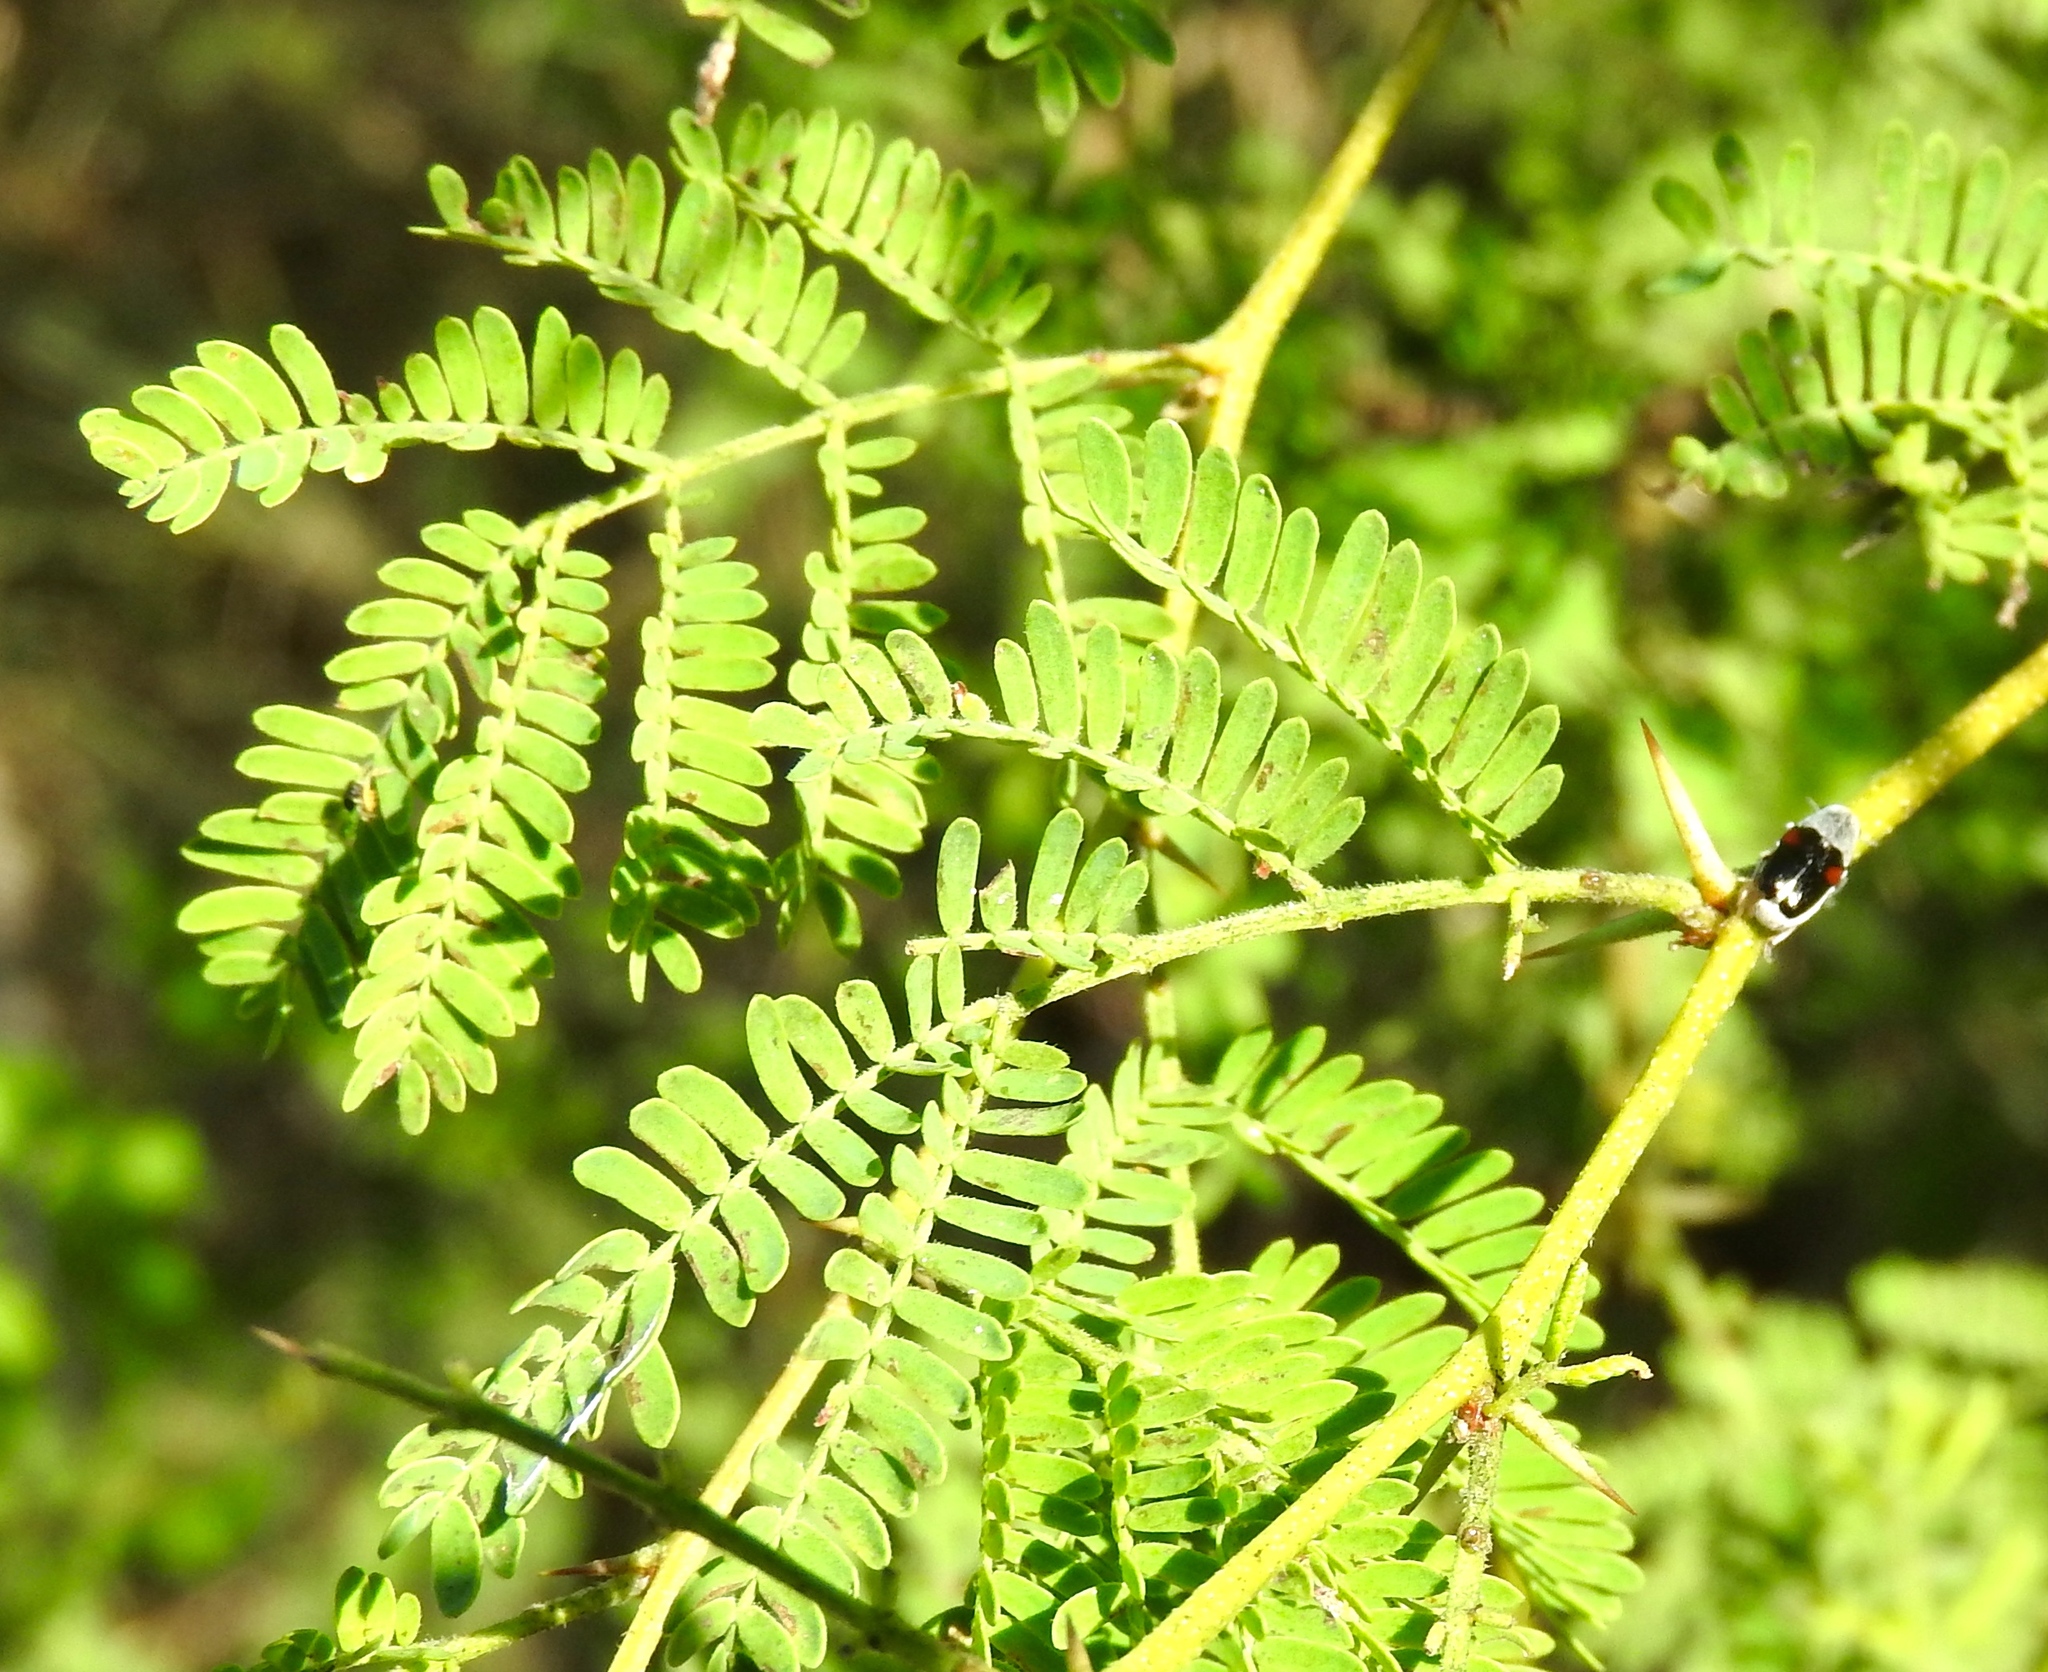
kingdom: Plantae
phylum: Tracheophyta
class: Magnoliopsida
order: Fabales
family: Fabaceae
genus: Vachellia
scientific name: Vachellia macracantha
